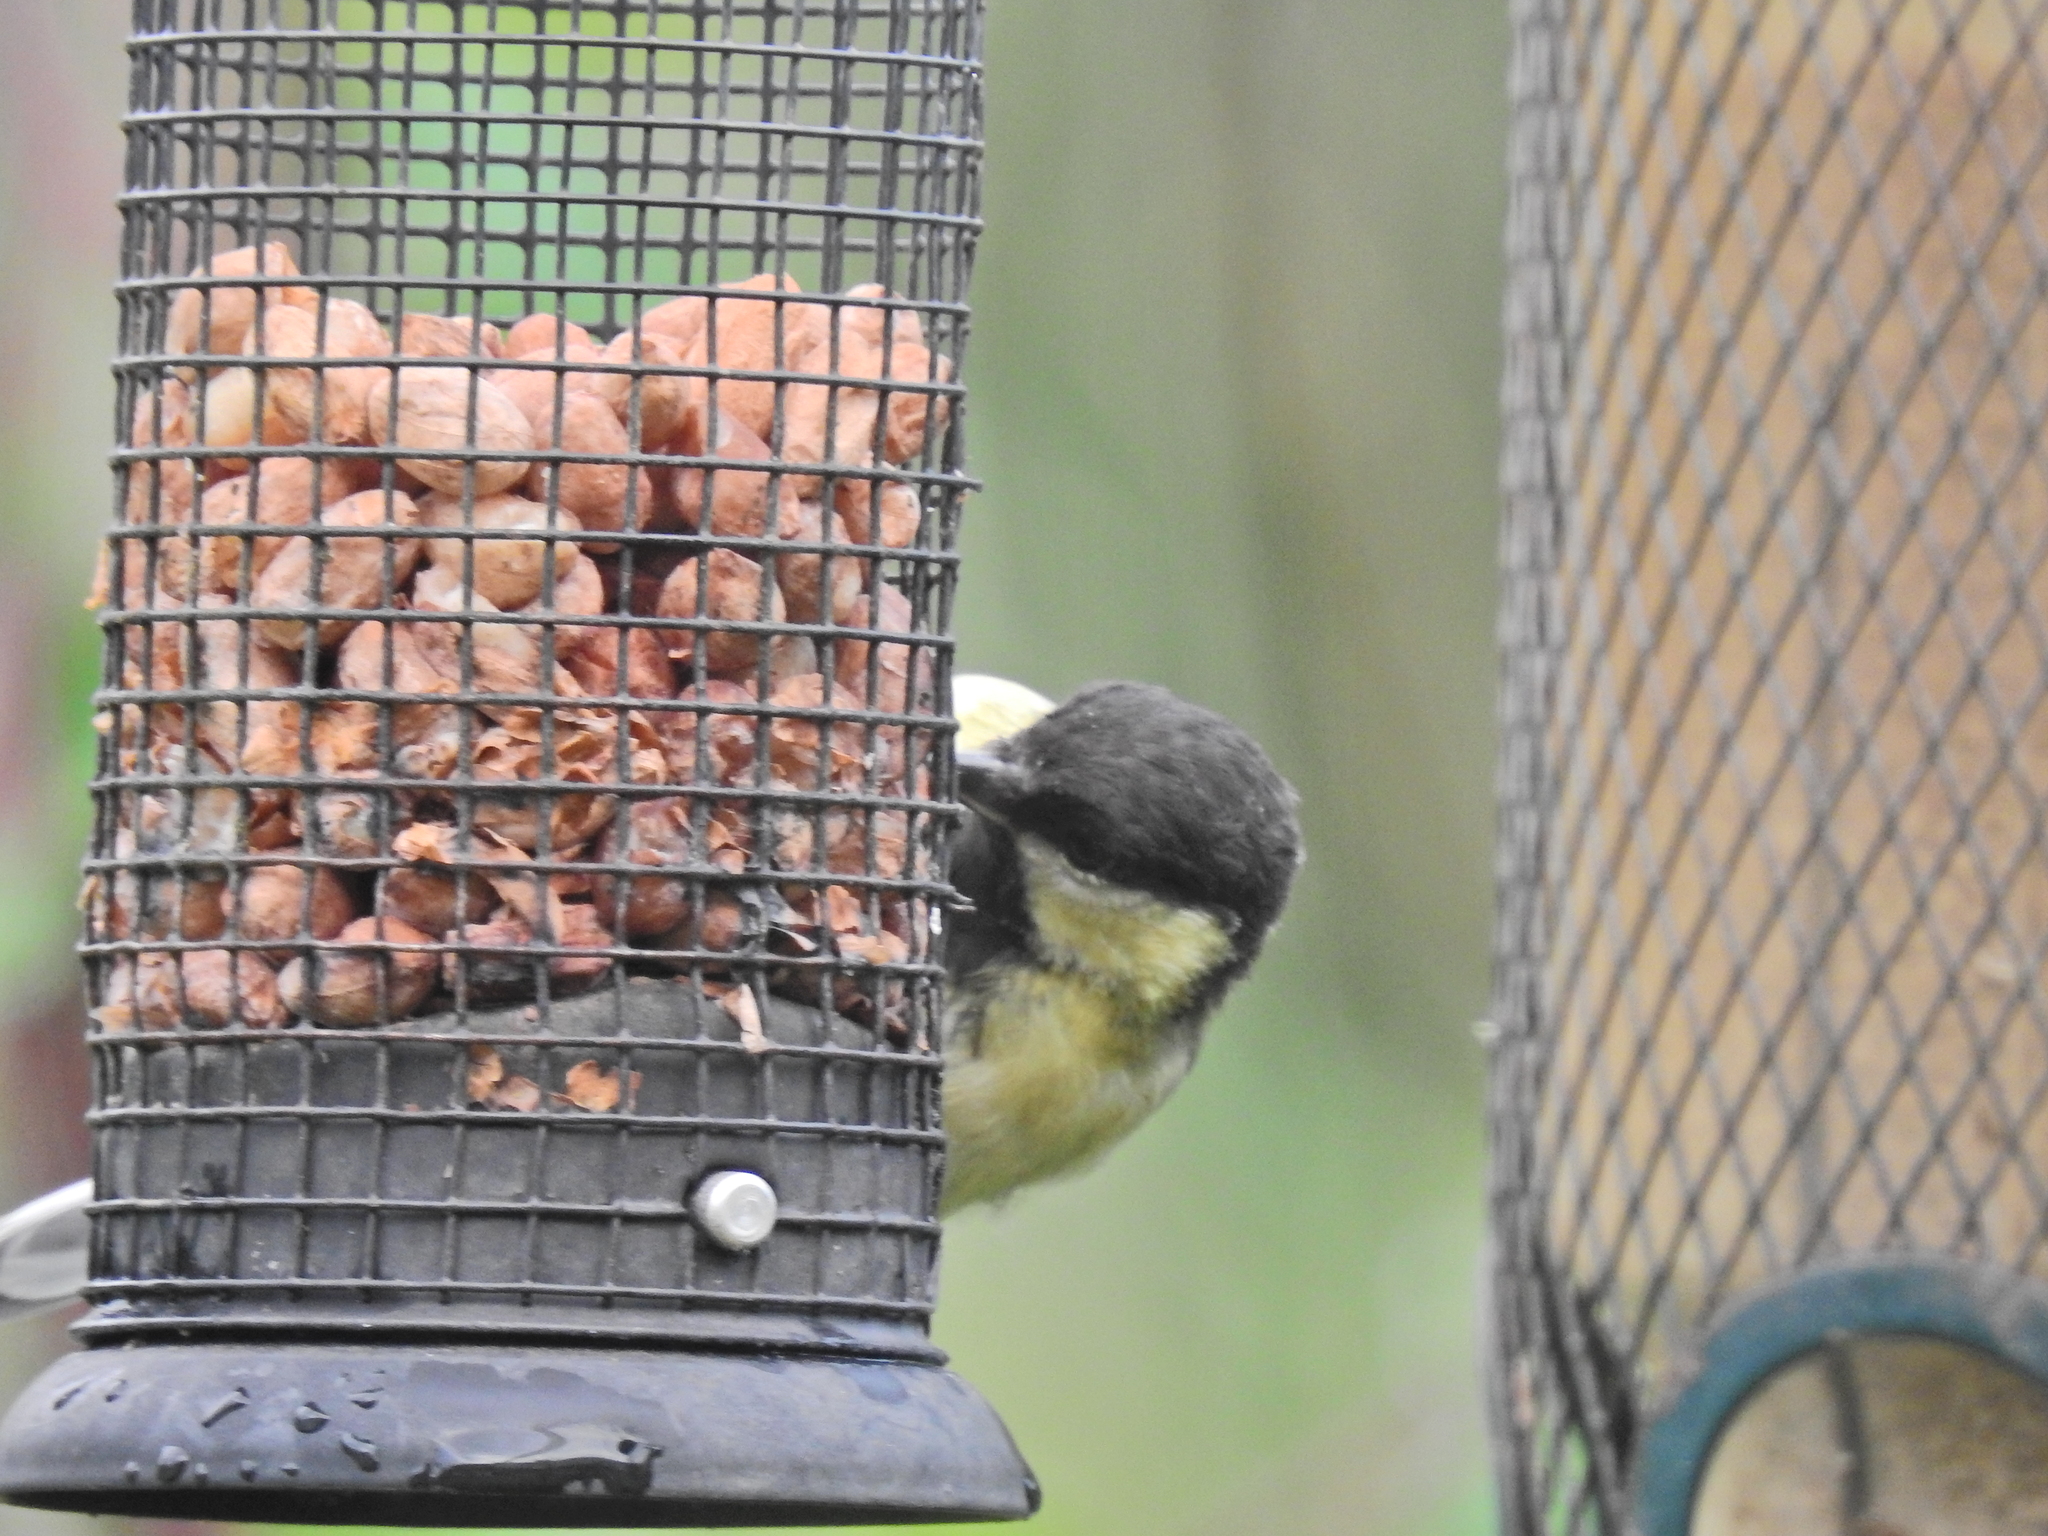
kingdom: Animalia
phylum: Chordata
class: Aves
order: Passeriformes
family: Paridae
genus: Parus
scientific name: Parus major
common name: Great tit
